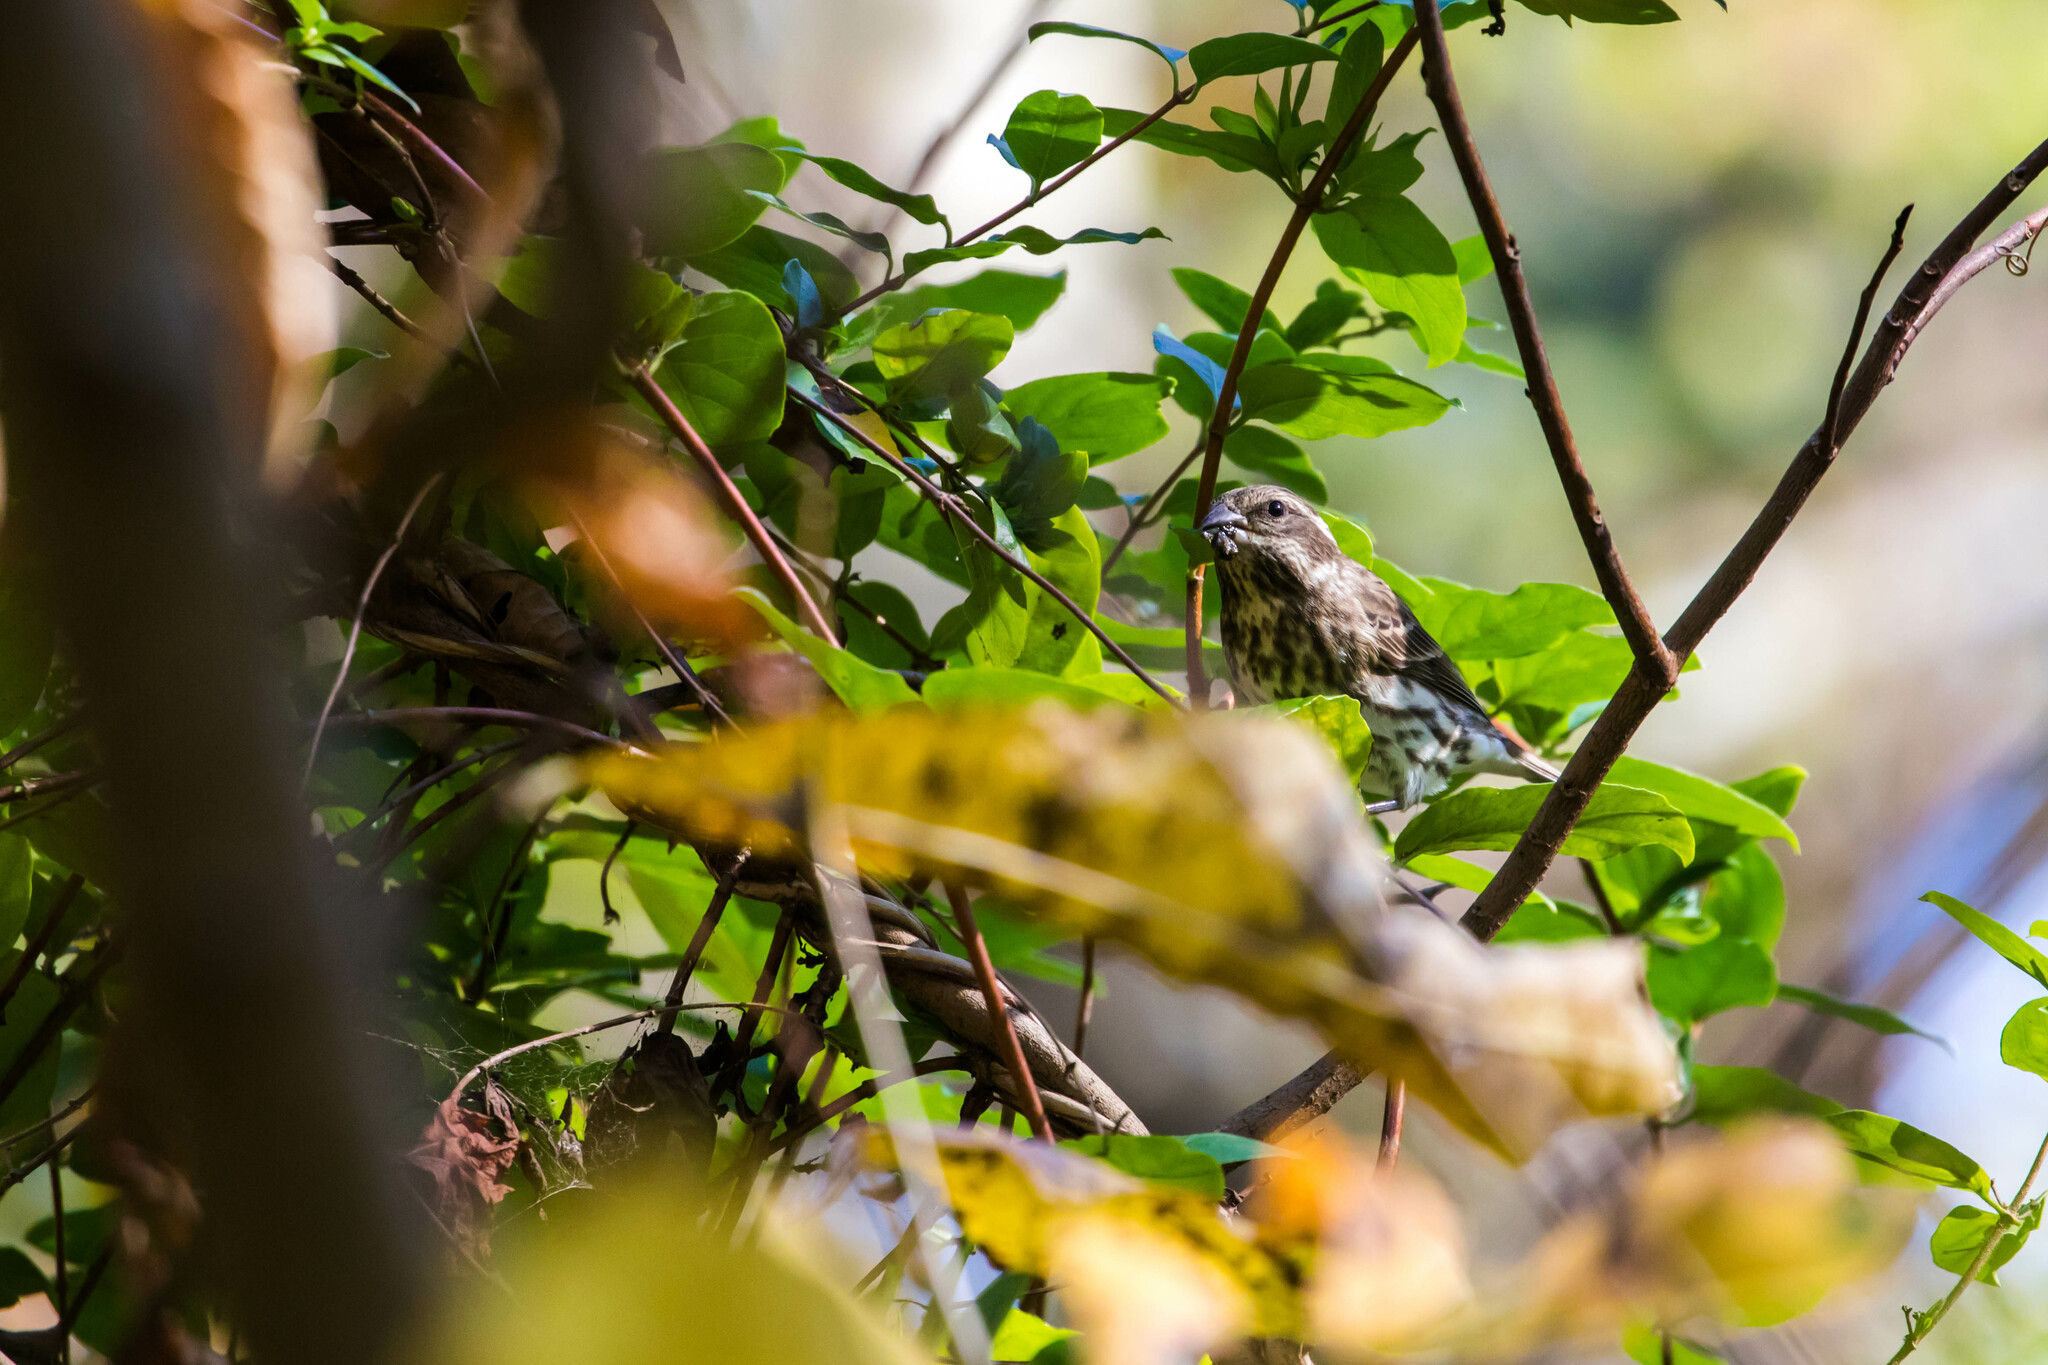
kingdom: Animalia
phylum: Chordata
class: Aves
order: Passeriformes
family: Fringillidae
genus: Haemorhous
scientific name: Haemorhous purpureus
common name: Purple finch
